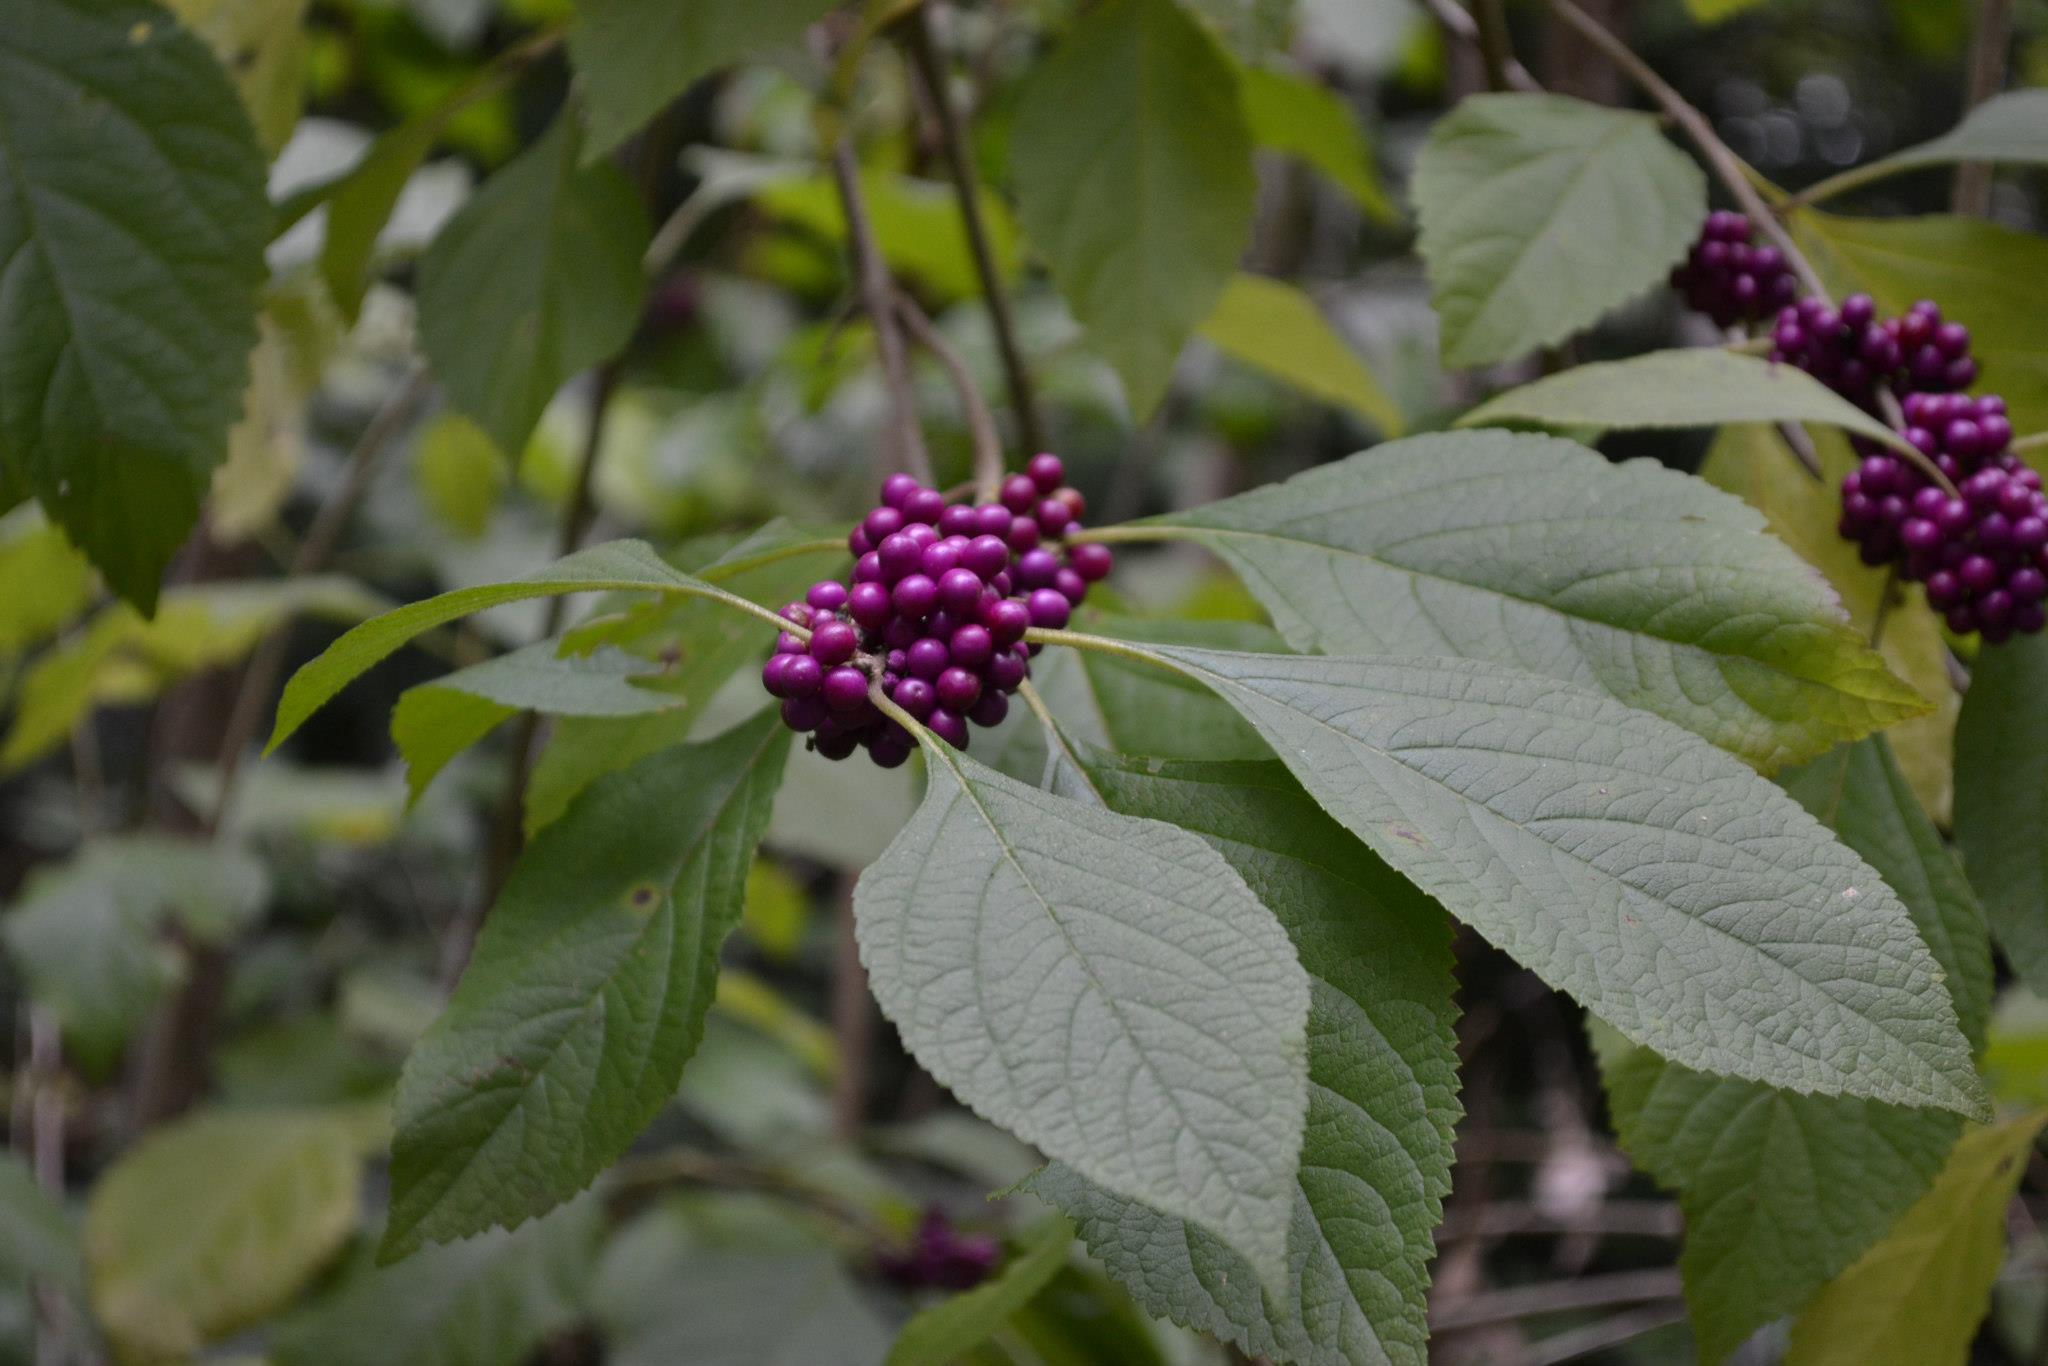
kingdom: Plantae
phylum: Tracheophyta
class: Magnoliopsida
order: Lamiales
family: Lamiaceae
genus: Callicarpa
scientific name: Callicarpa americana
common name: American beautyberry
